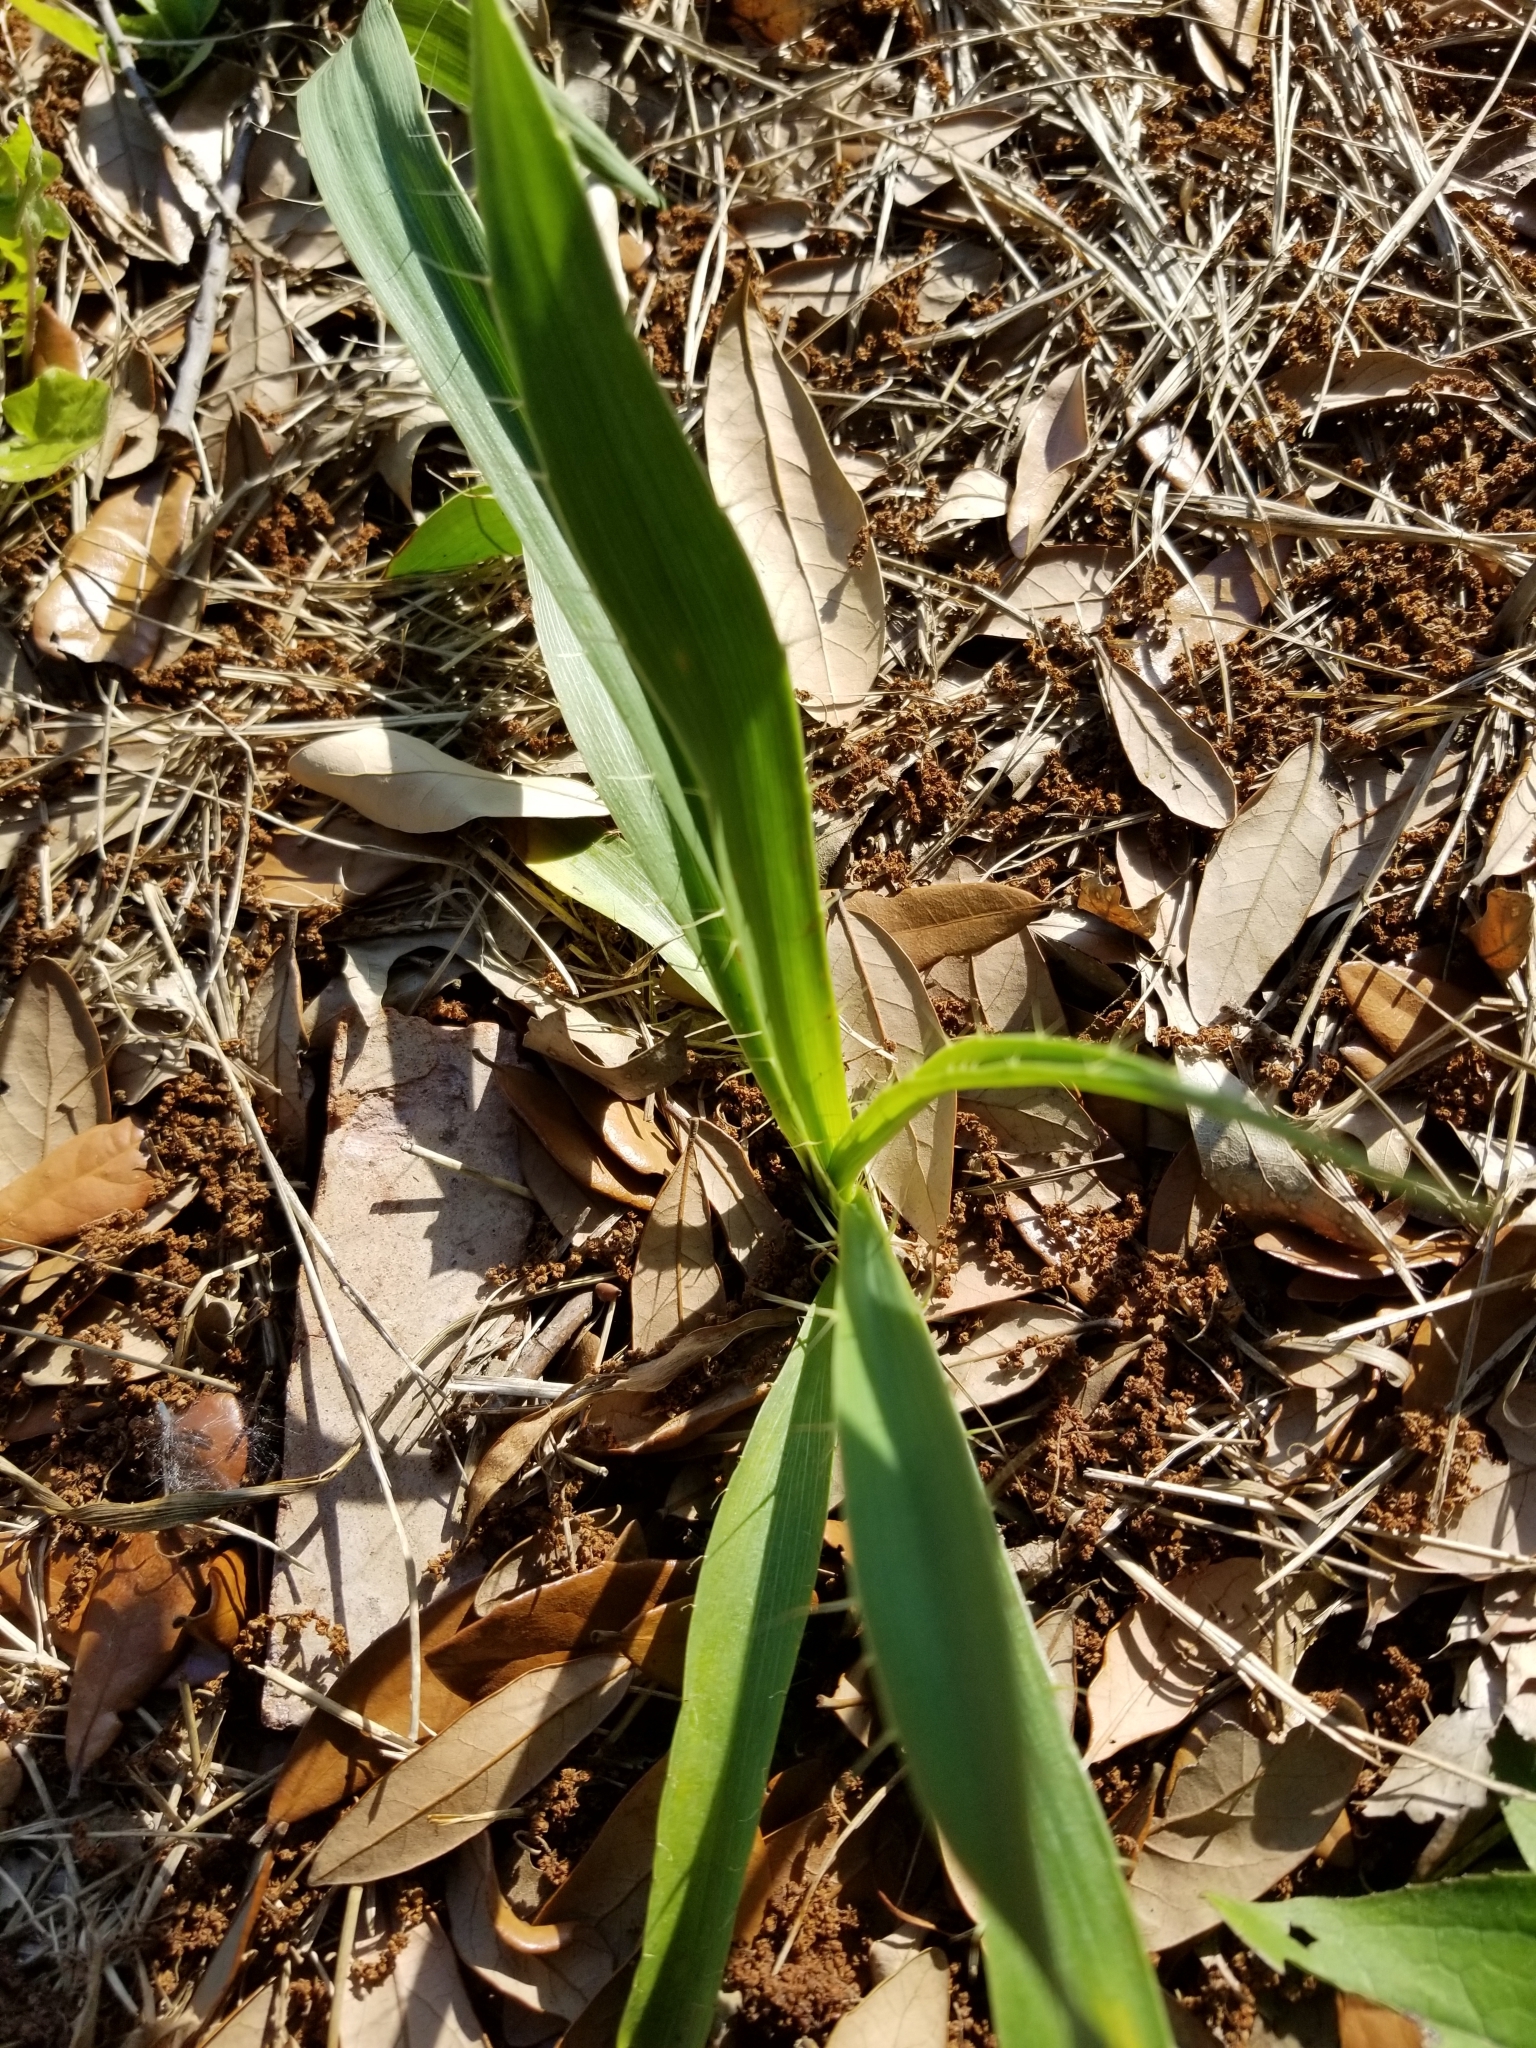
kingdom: Plantae
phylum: Tracheophyta
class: Magnoliopsida
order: Apiales
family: Apiaceae
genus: Eryngium
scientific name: Eryngium yuccifolium
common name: Button eryngo
